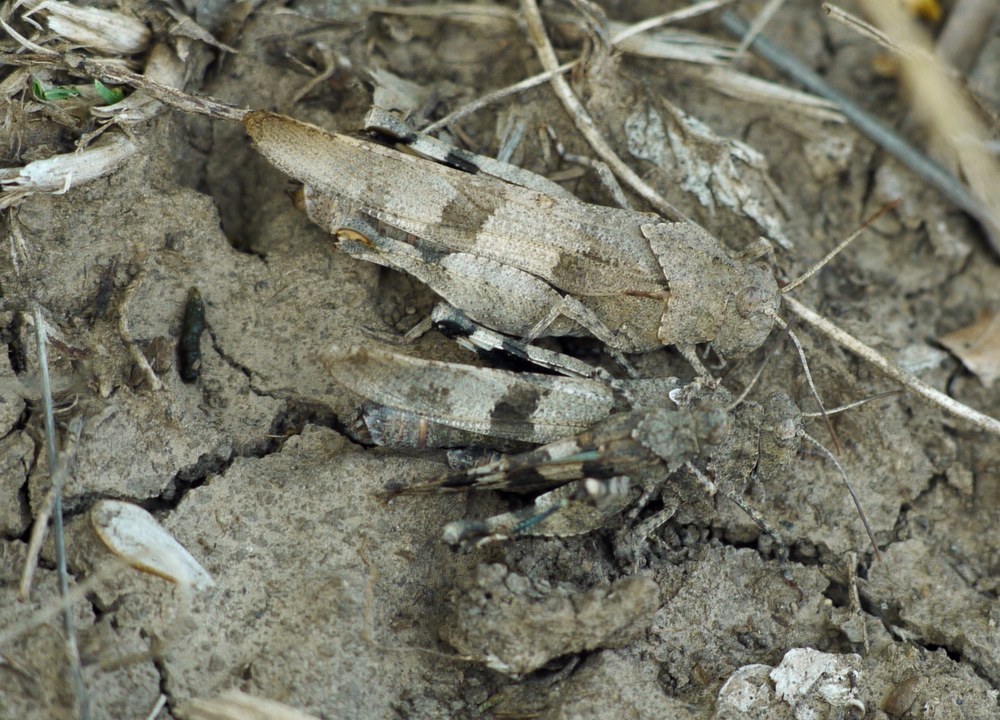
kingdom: Animalia
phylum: Arthropoda
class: Insecta
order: Orthoptera
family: Acrididae
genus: Oedipoda
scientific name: Oedipoda caerulescens
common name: Blue-winged grasshopper
